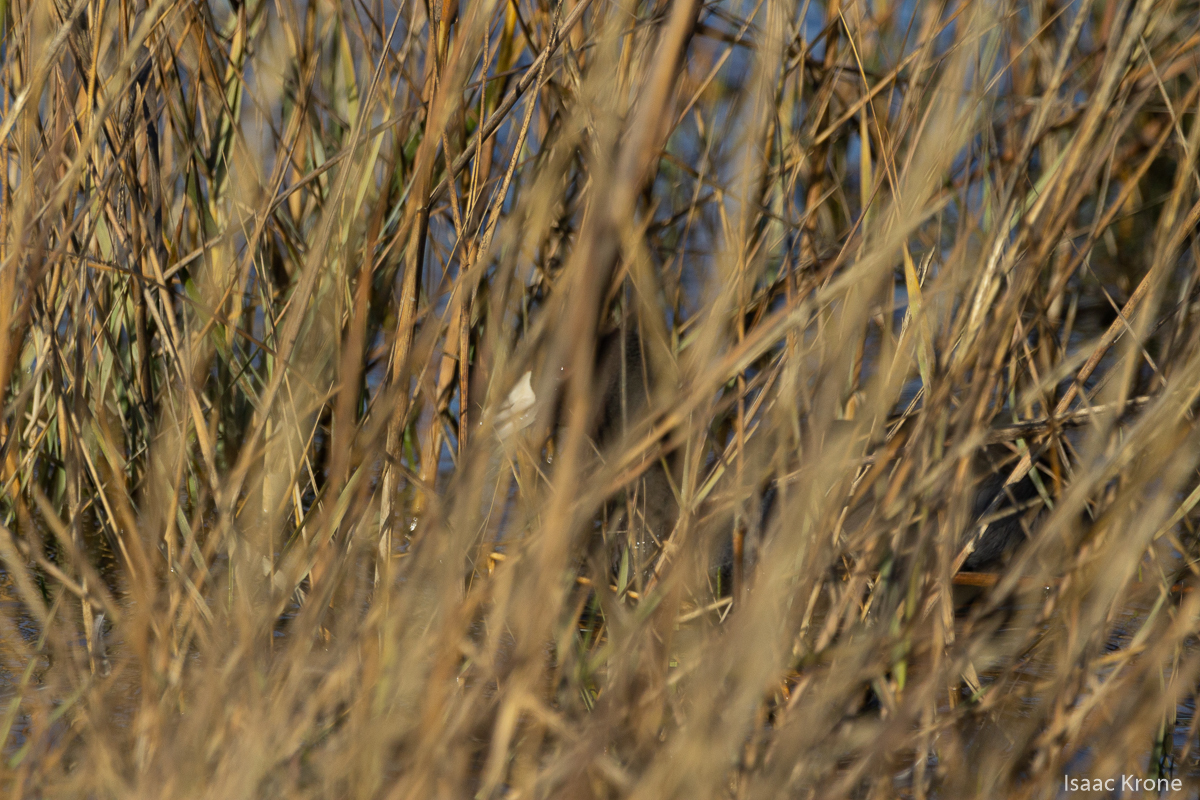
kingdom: Animalia
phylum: Chordata
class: Aves
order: Gruiformes
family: Rallidae
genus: Fulica
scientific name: Fulica americana
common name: American coot
